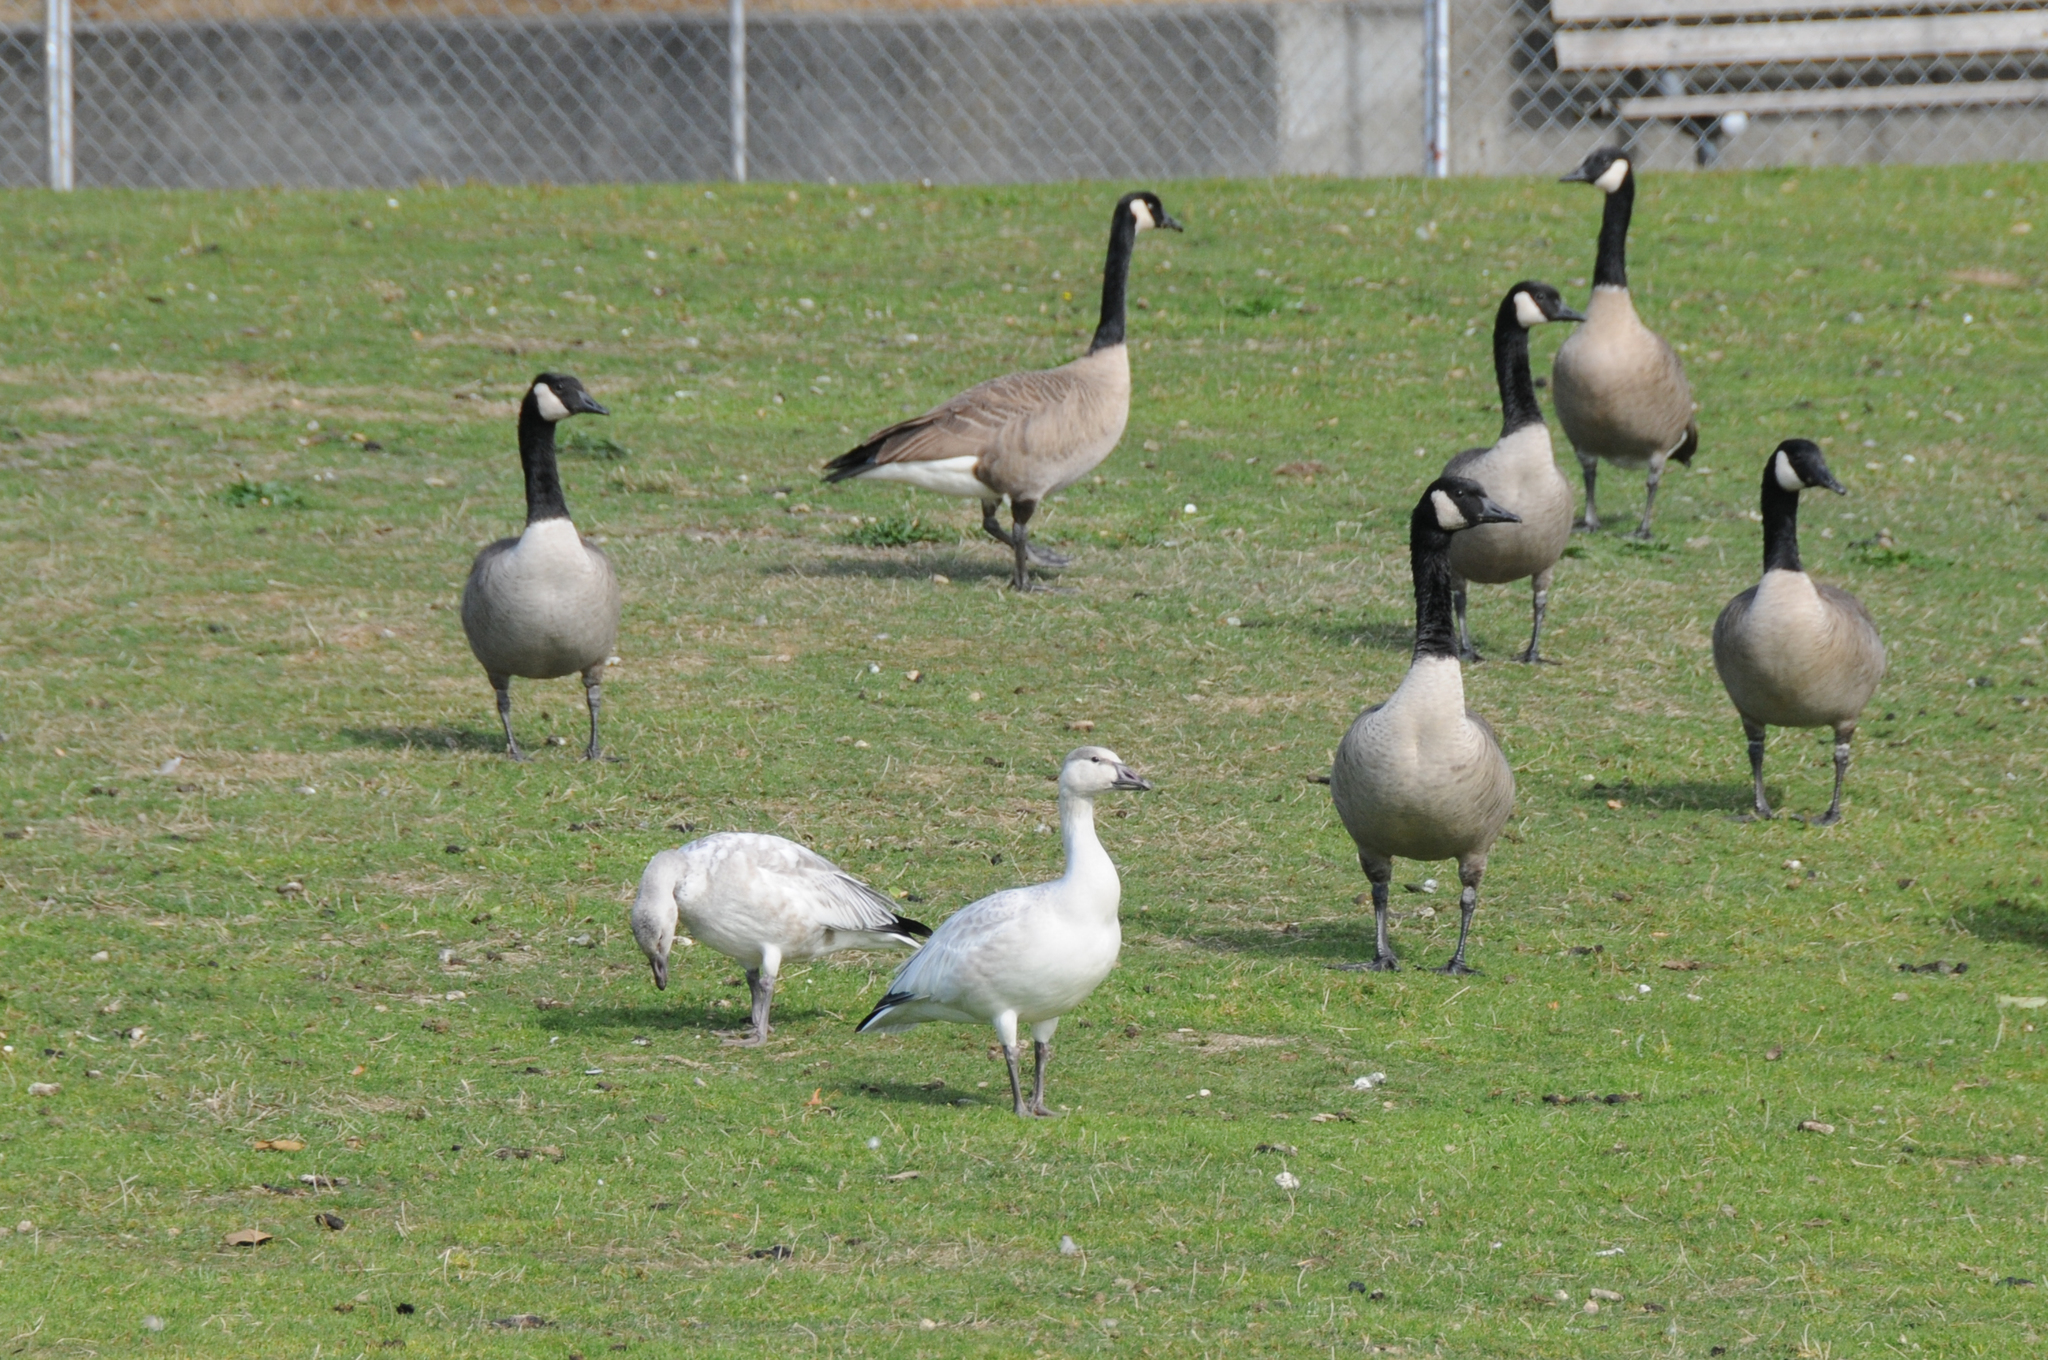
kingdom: Animalia
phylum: Chordata
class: Aves
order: Anseriformes
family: Anatidae
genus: Anser
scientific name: Anser caerulescens
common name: Snow goose
